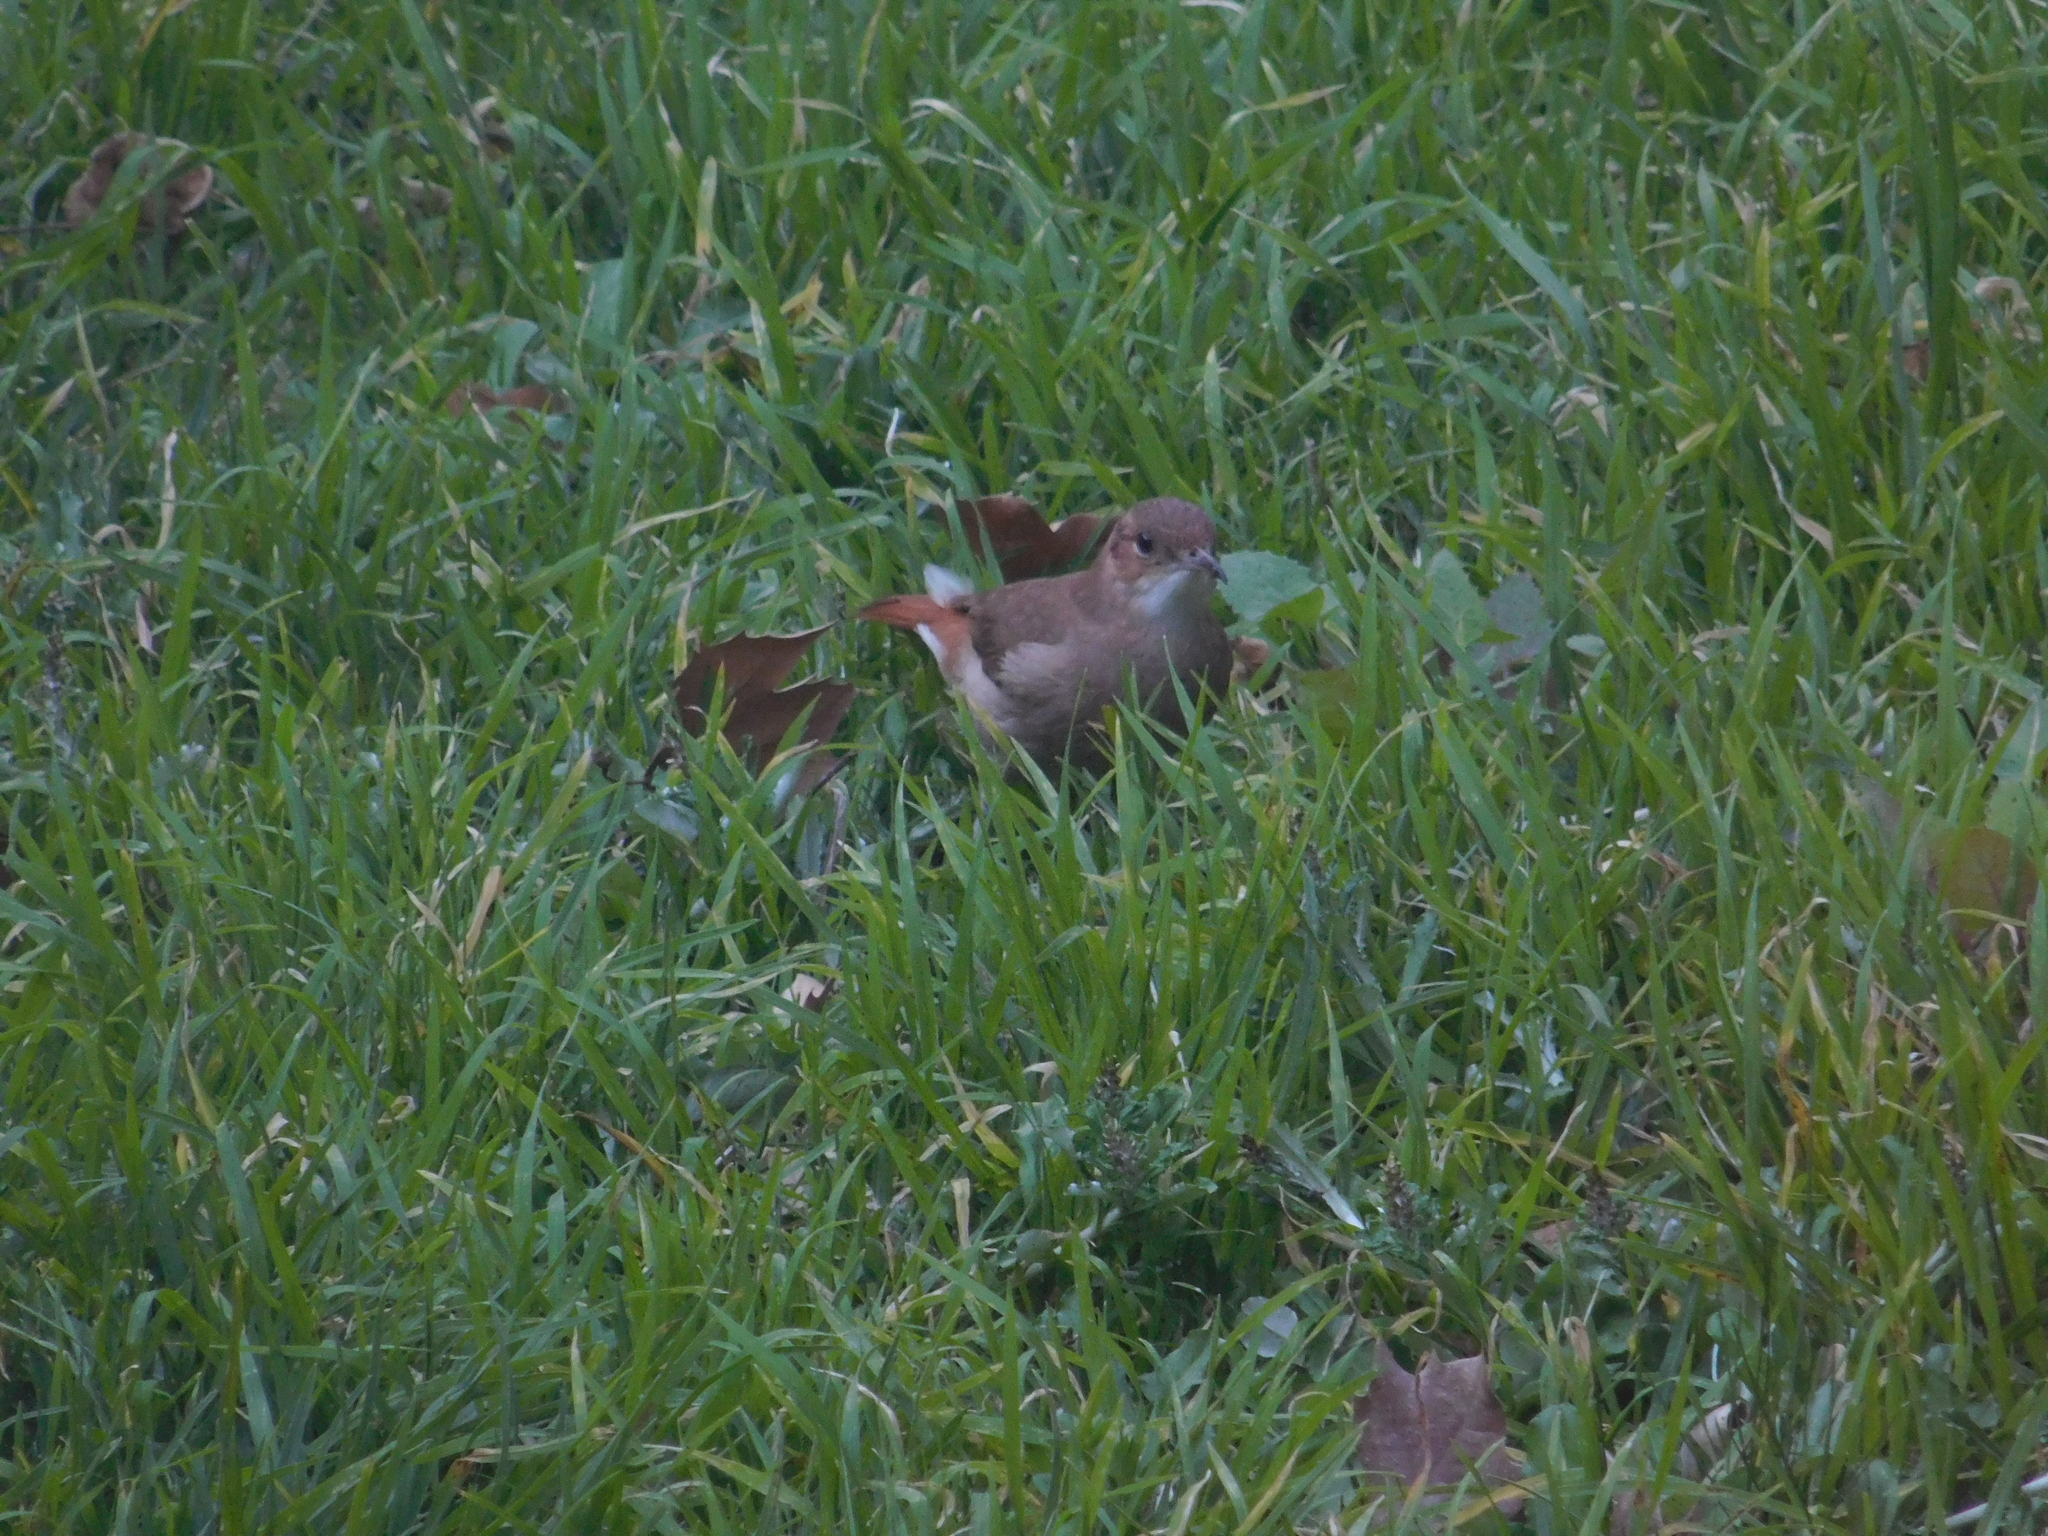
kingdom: Animalia
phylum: Chordata
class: Aves
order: Passeriformes
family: Furnariidae
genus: Furnarius
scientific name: Furnarius rufus
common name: Rufous hornero
